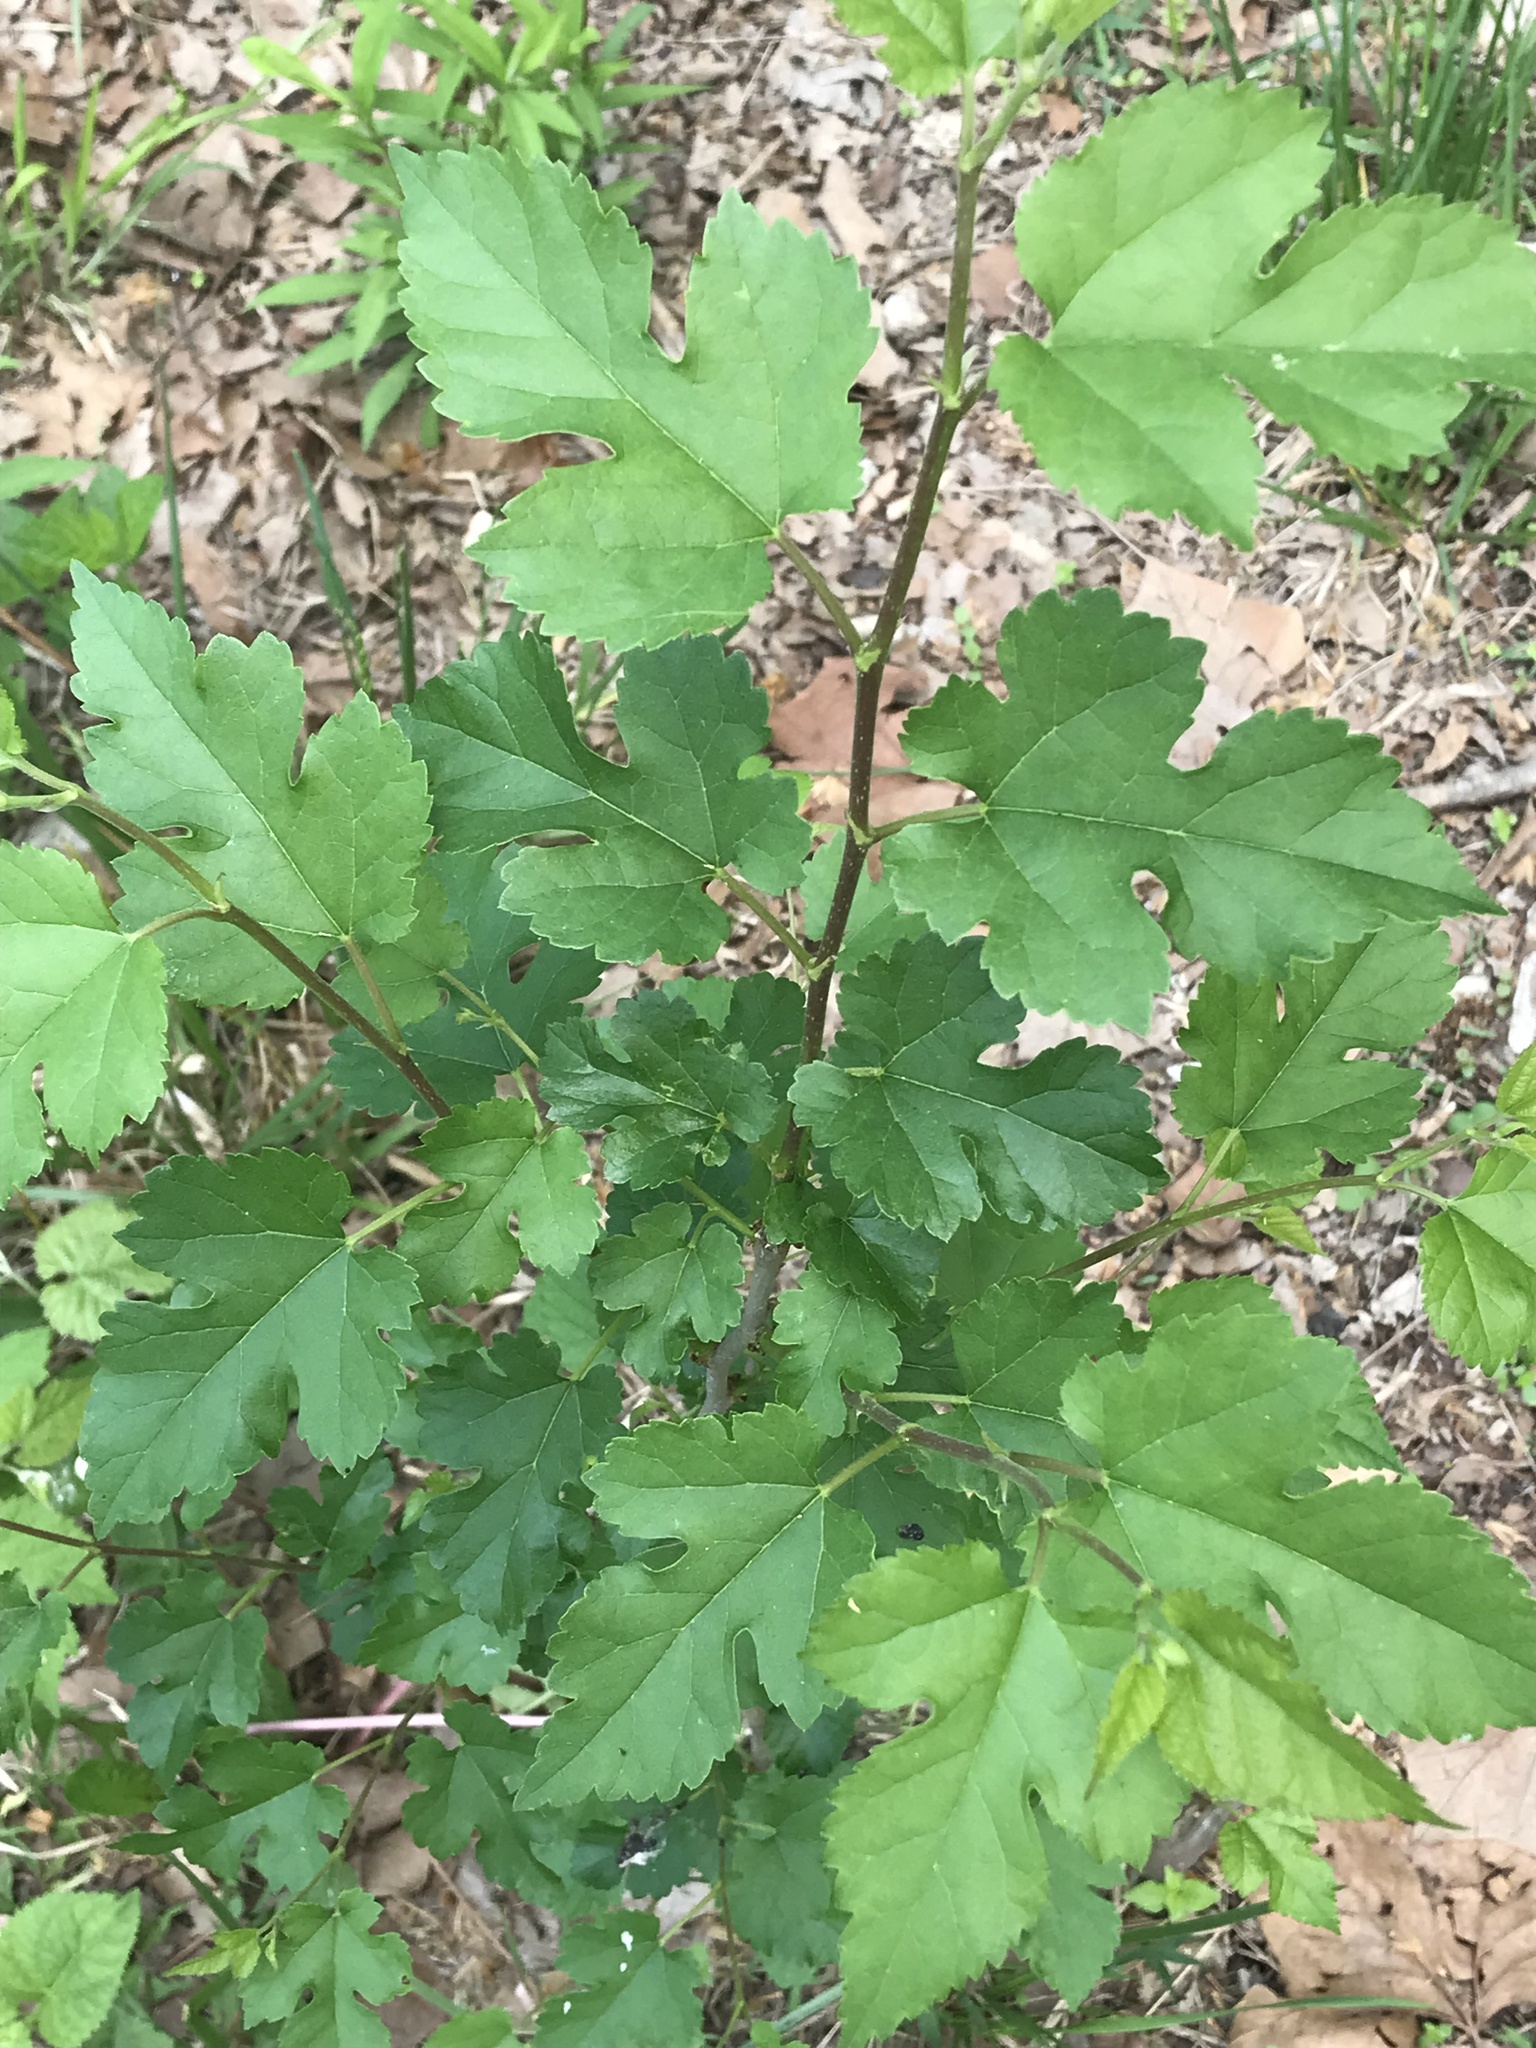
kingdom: Plantae
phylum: Tracheophyta
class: Magnoliopsida
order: Rosales
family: Moraceae
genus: Morus
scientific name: Morus alba
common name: White mulberry
